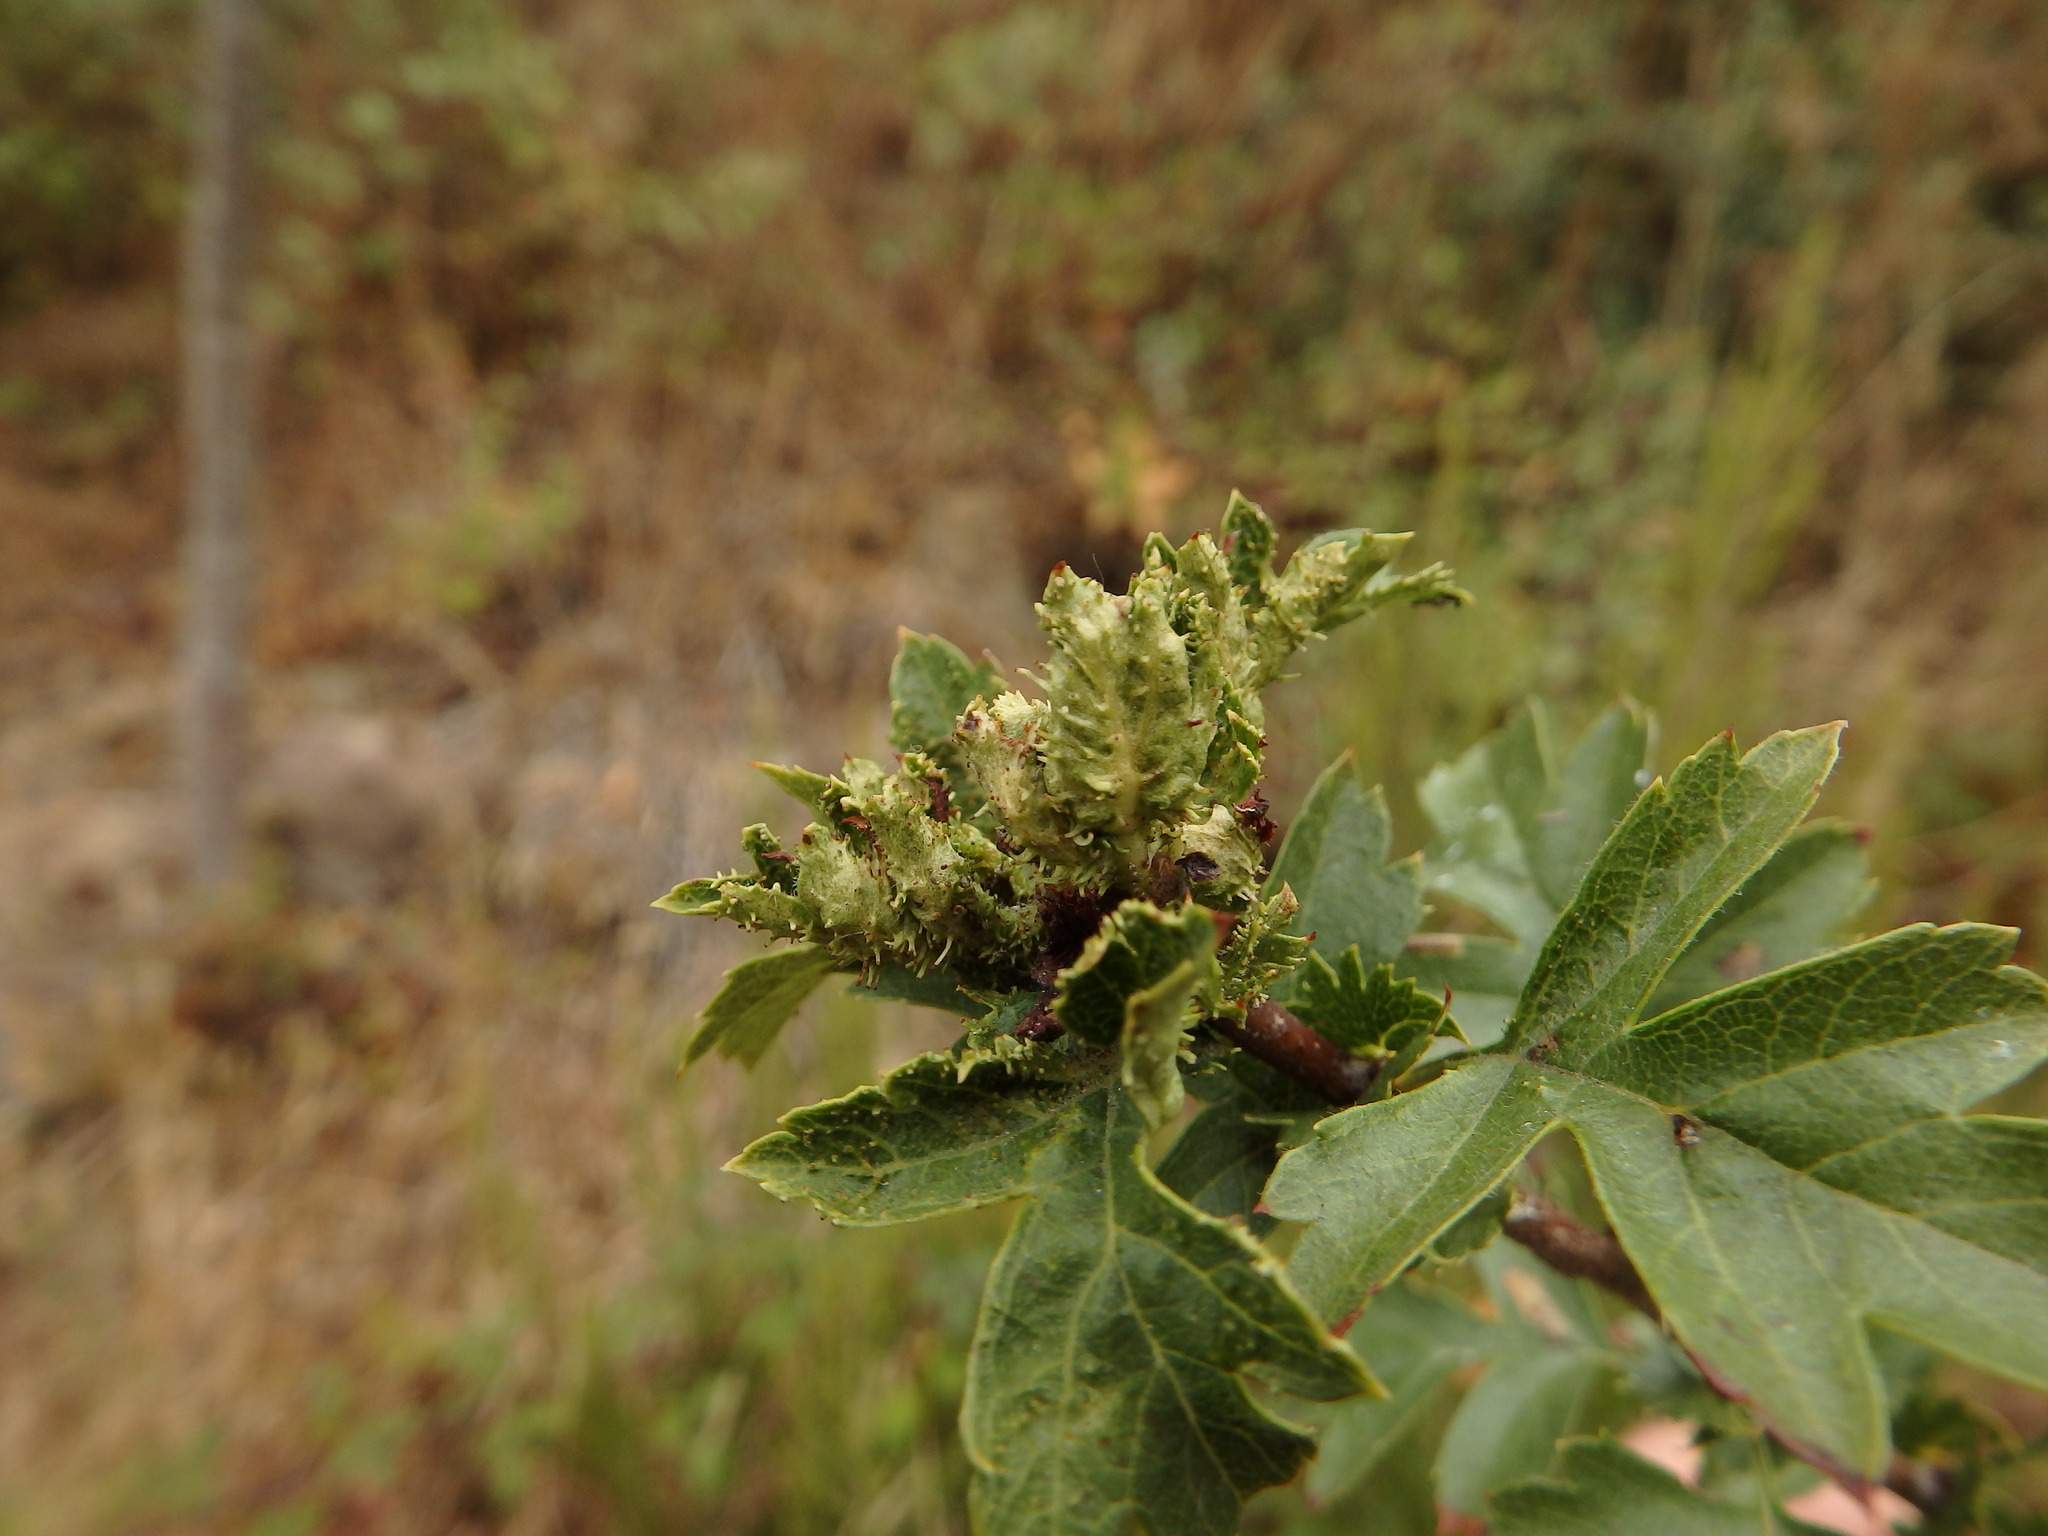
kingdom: Animalia
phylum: Arthropoda
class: Insecta
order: Diptera
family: Cecidomyiidae
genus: Dasineura
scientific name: Dasineura crataegi
